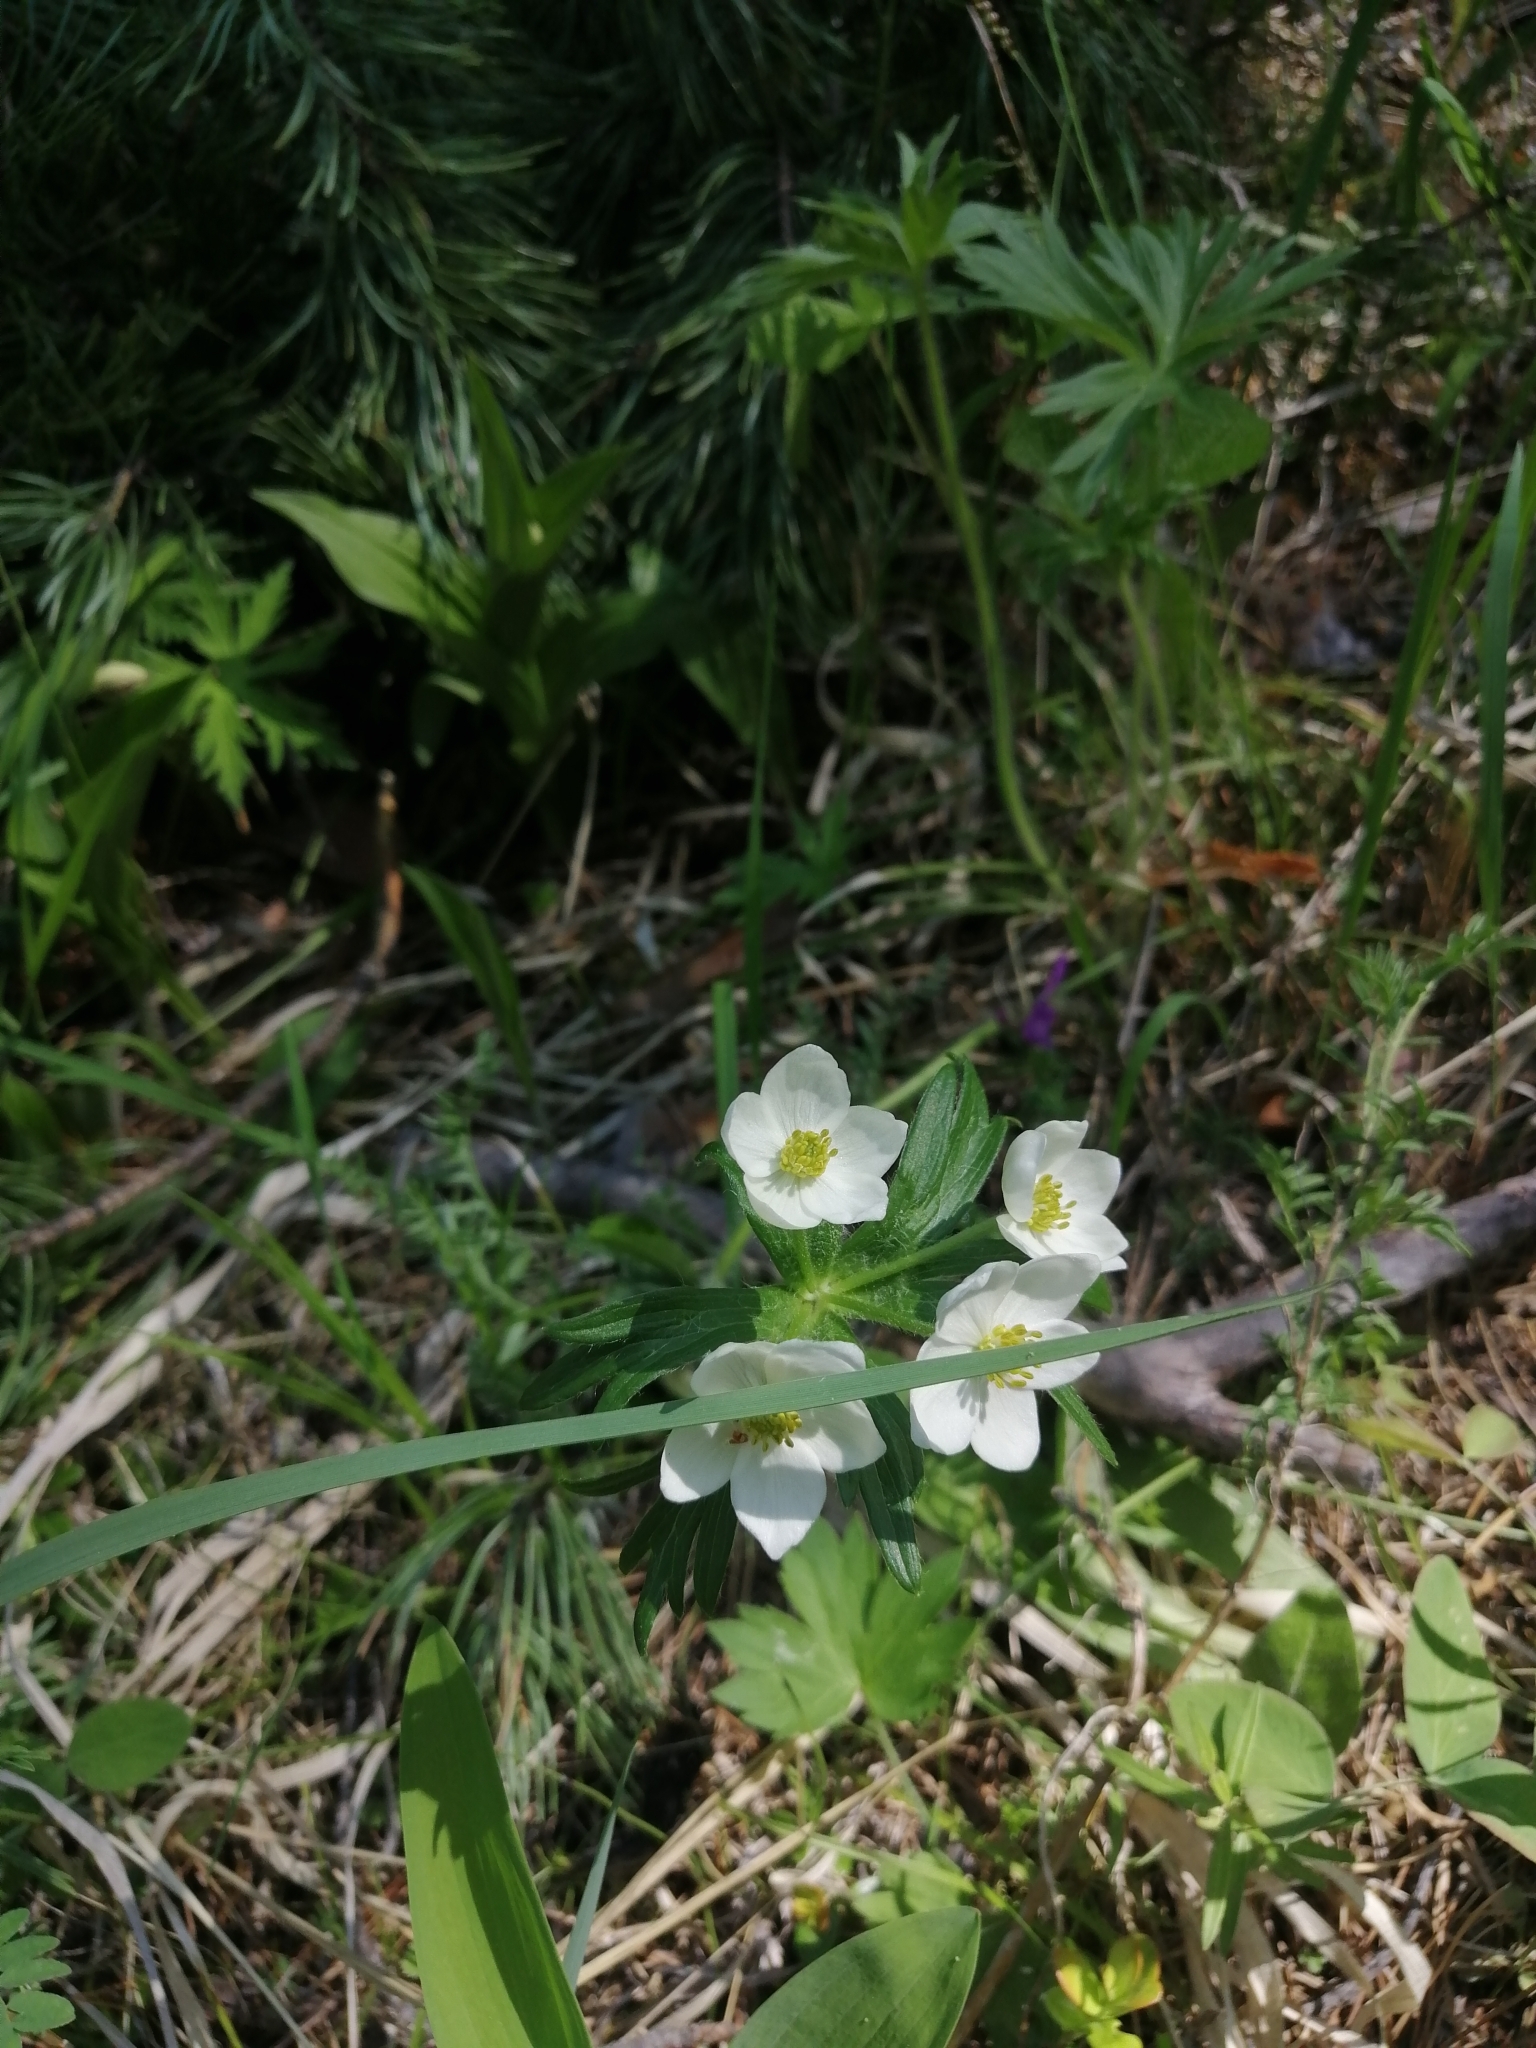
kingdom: Plantae
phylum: Tracheophyta
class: Magnoliopsida
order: Ranunculales
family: Ranunculaceae
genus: Anemonastrum
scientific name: Anemonastrum narcissiflorum
